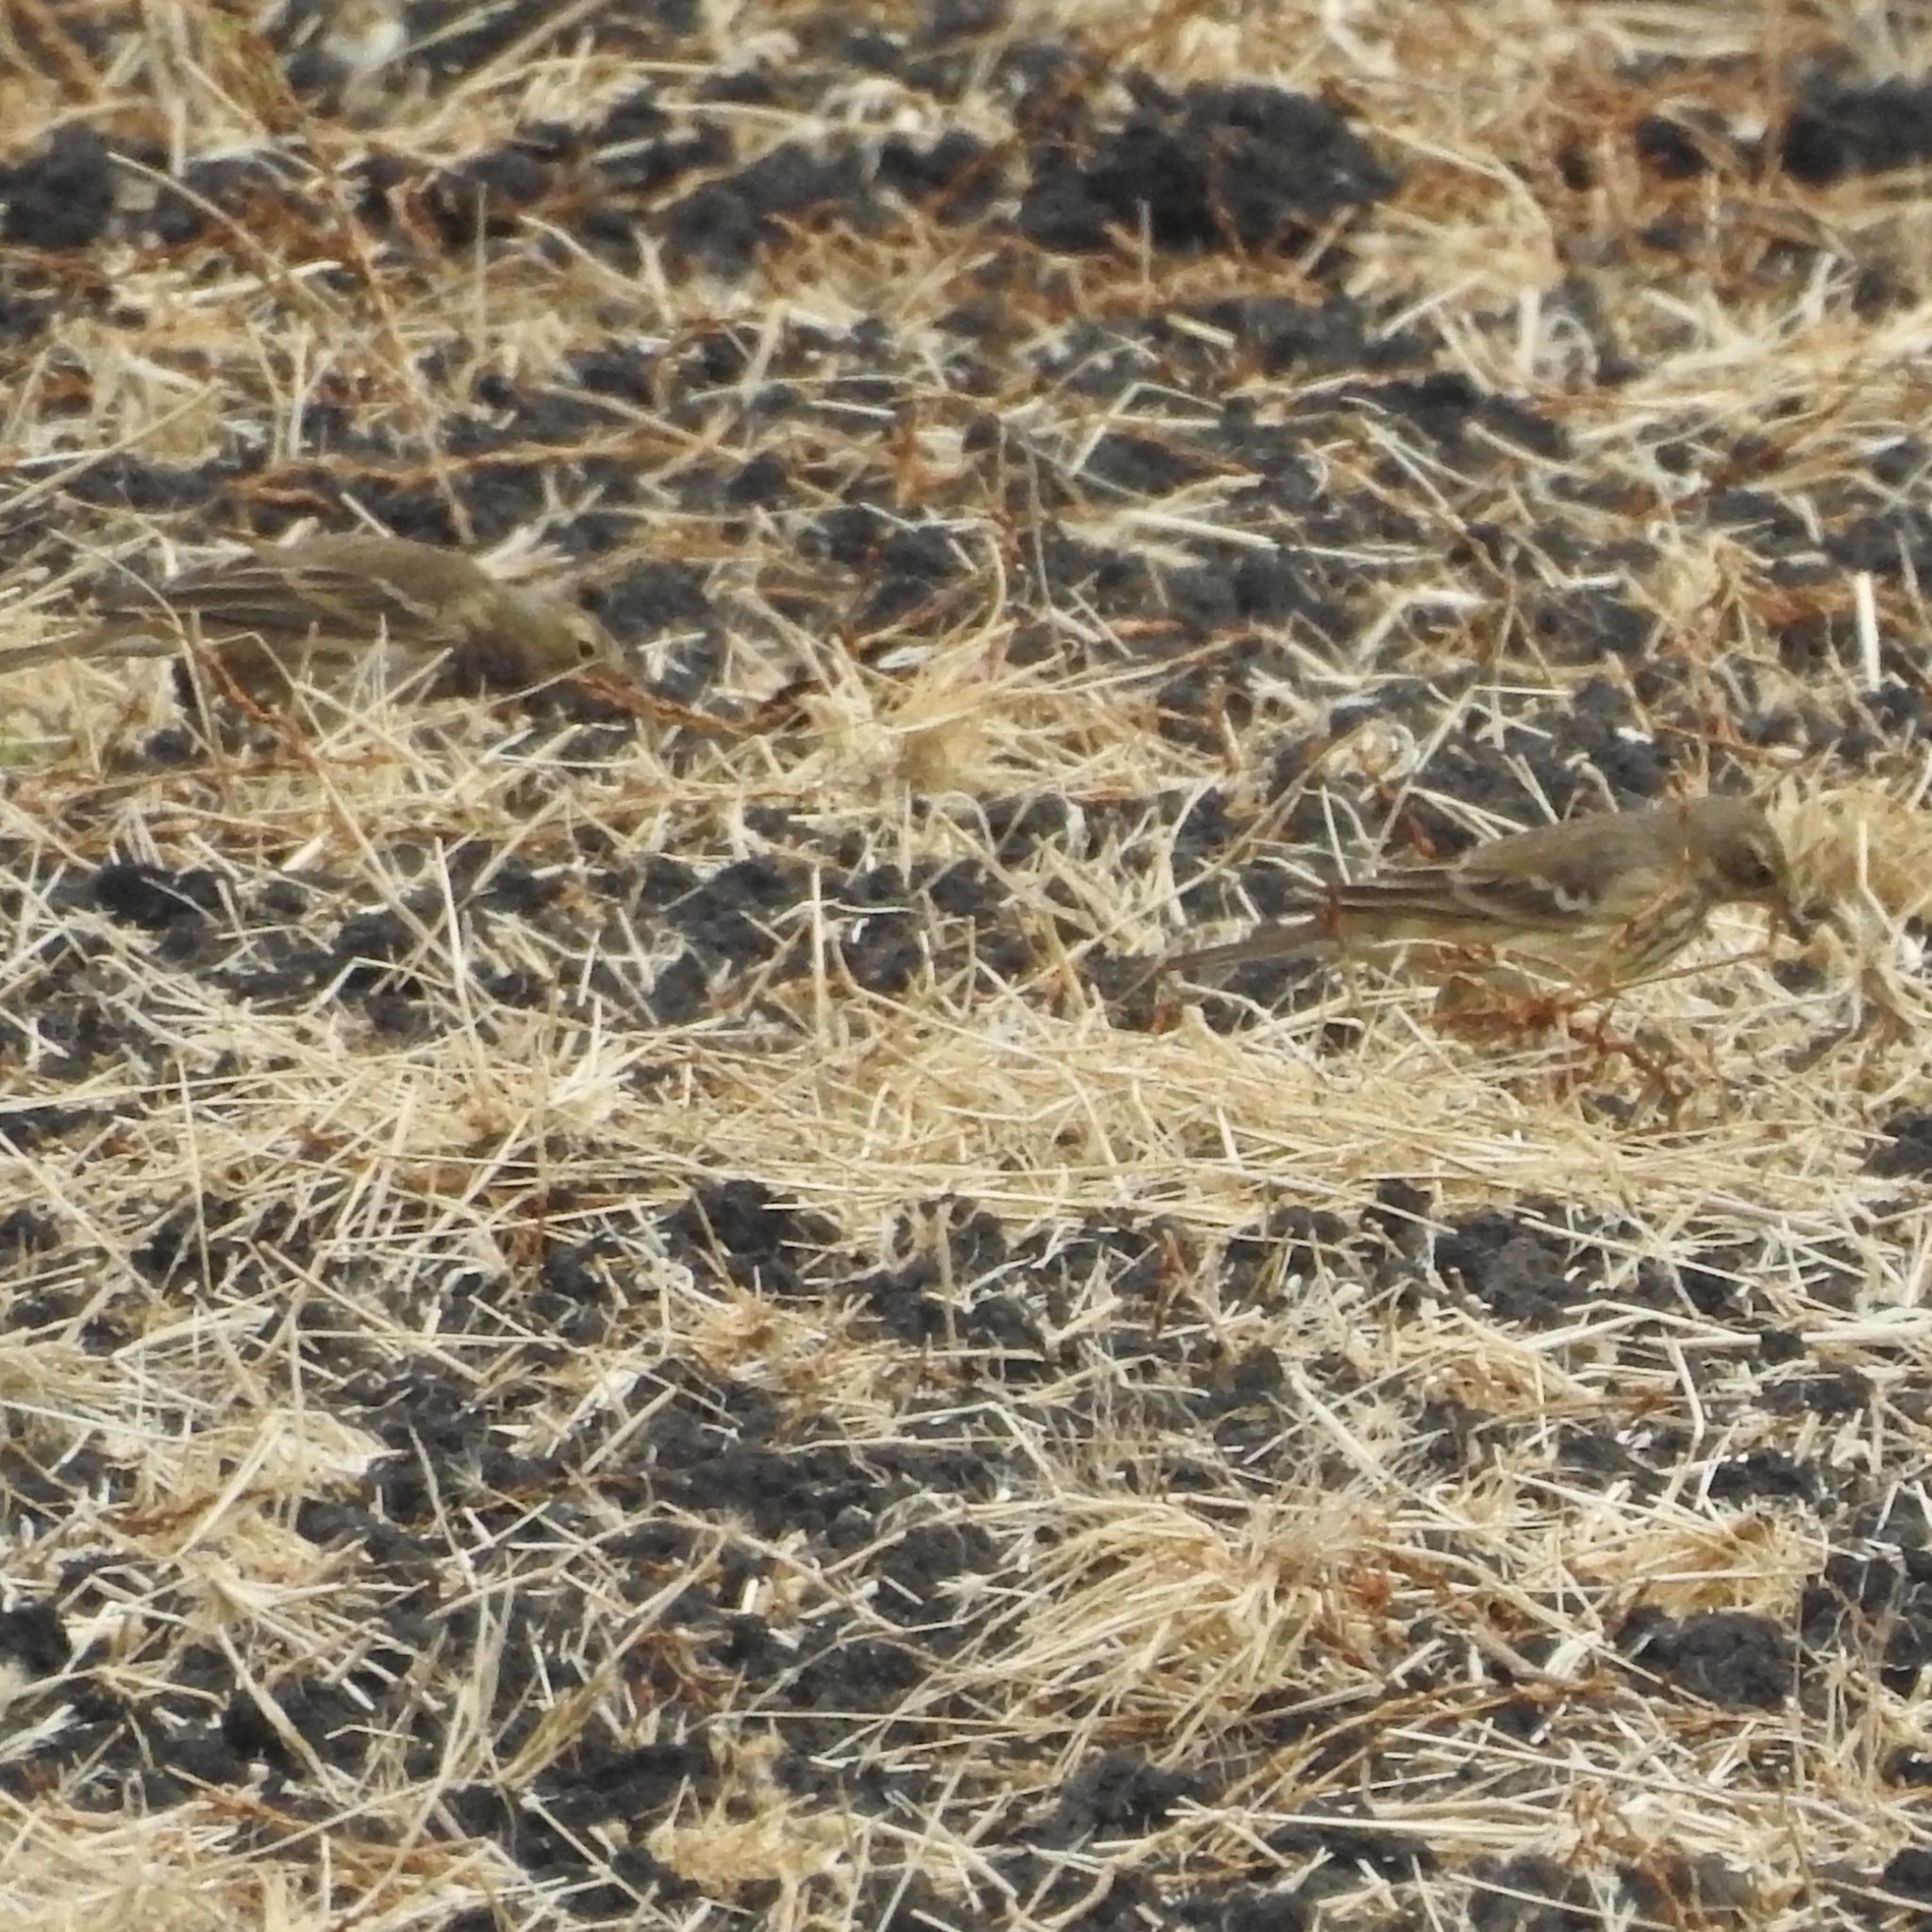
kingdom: Animalia
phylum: Chordata
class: Aves
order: Passeriformes
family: Motacillidae
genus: Anthus
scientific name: Anthus rubescens
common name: Buff-bellied pipit
